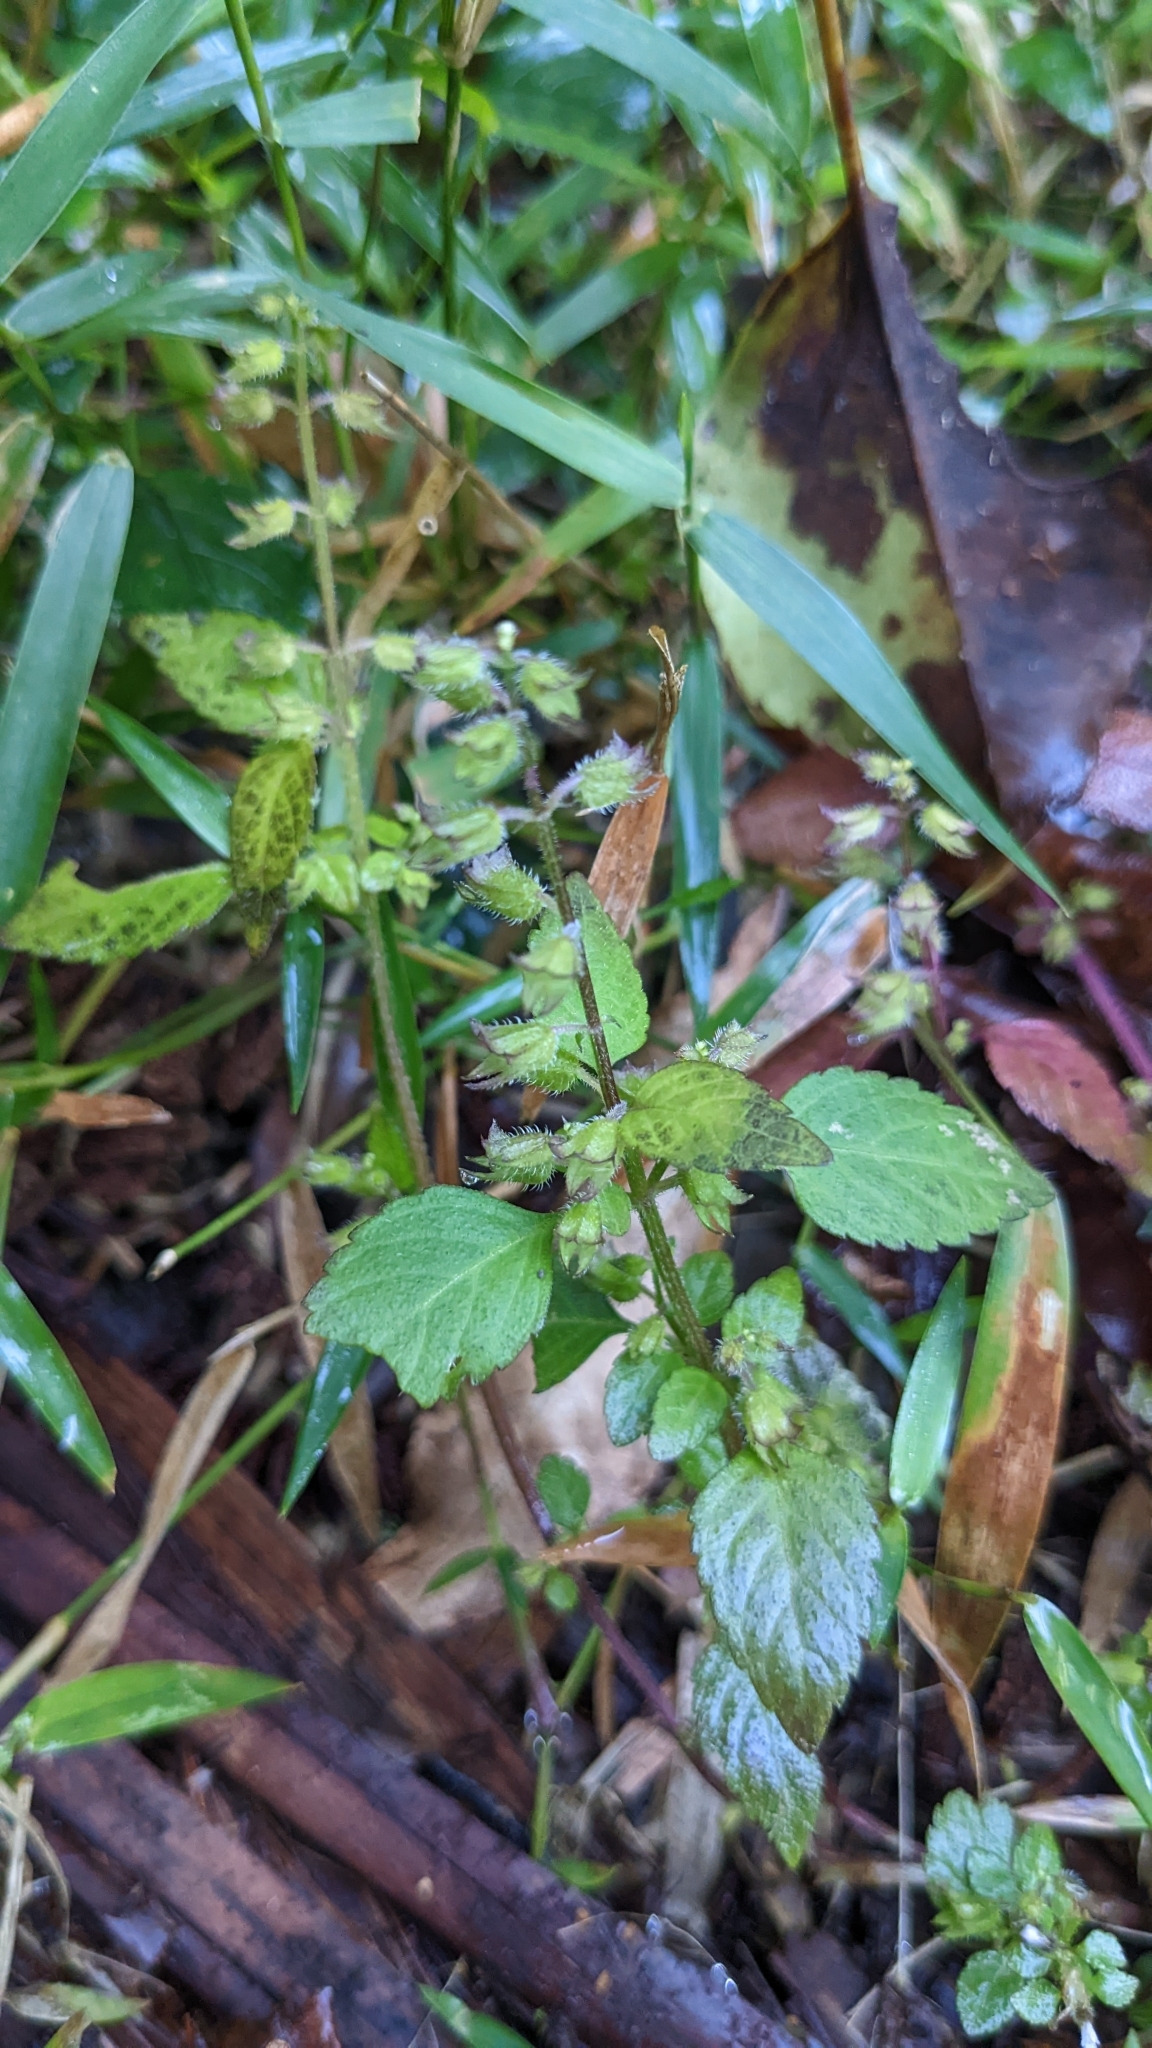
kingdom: Plantae
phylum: Tracheophyta
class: Magnoliopsida
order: Lamiales
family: Lamiaceae
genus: Mosla
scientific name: Mosla cavaleriei
